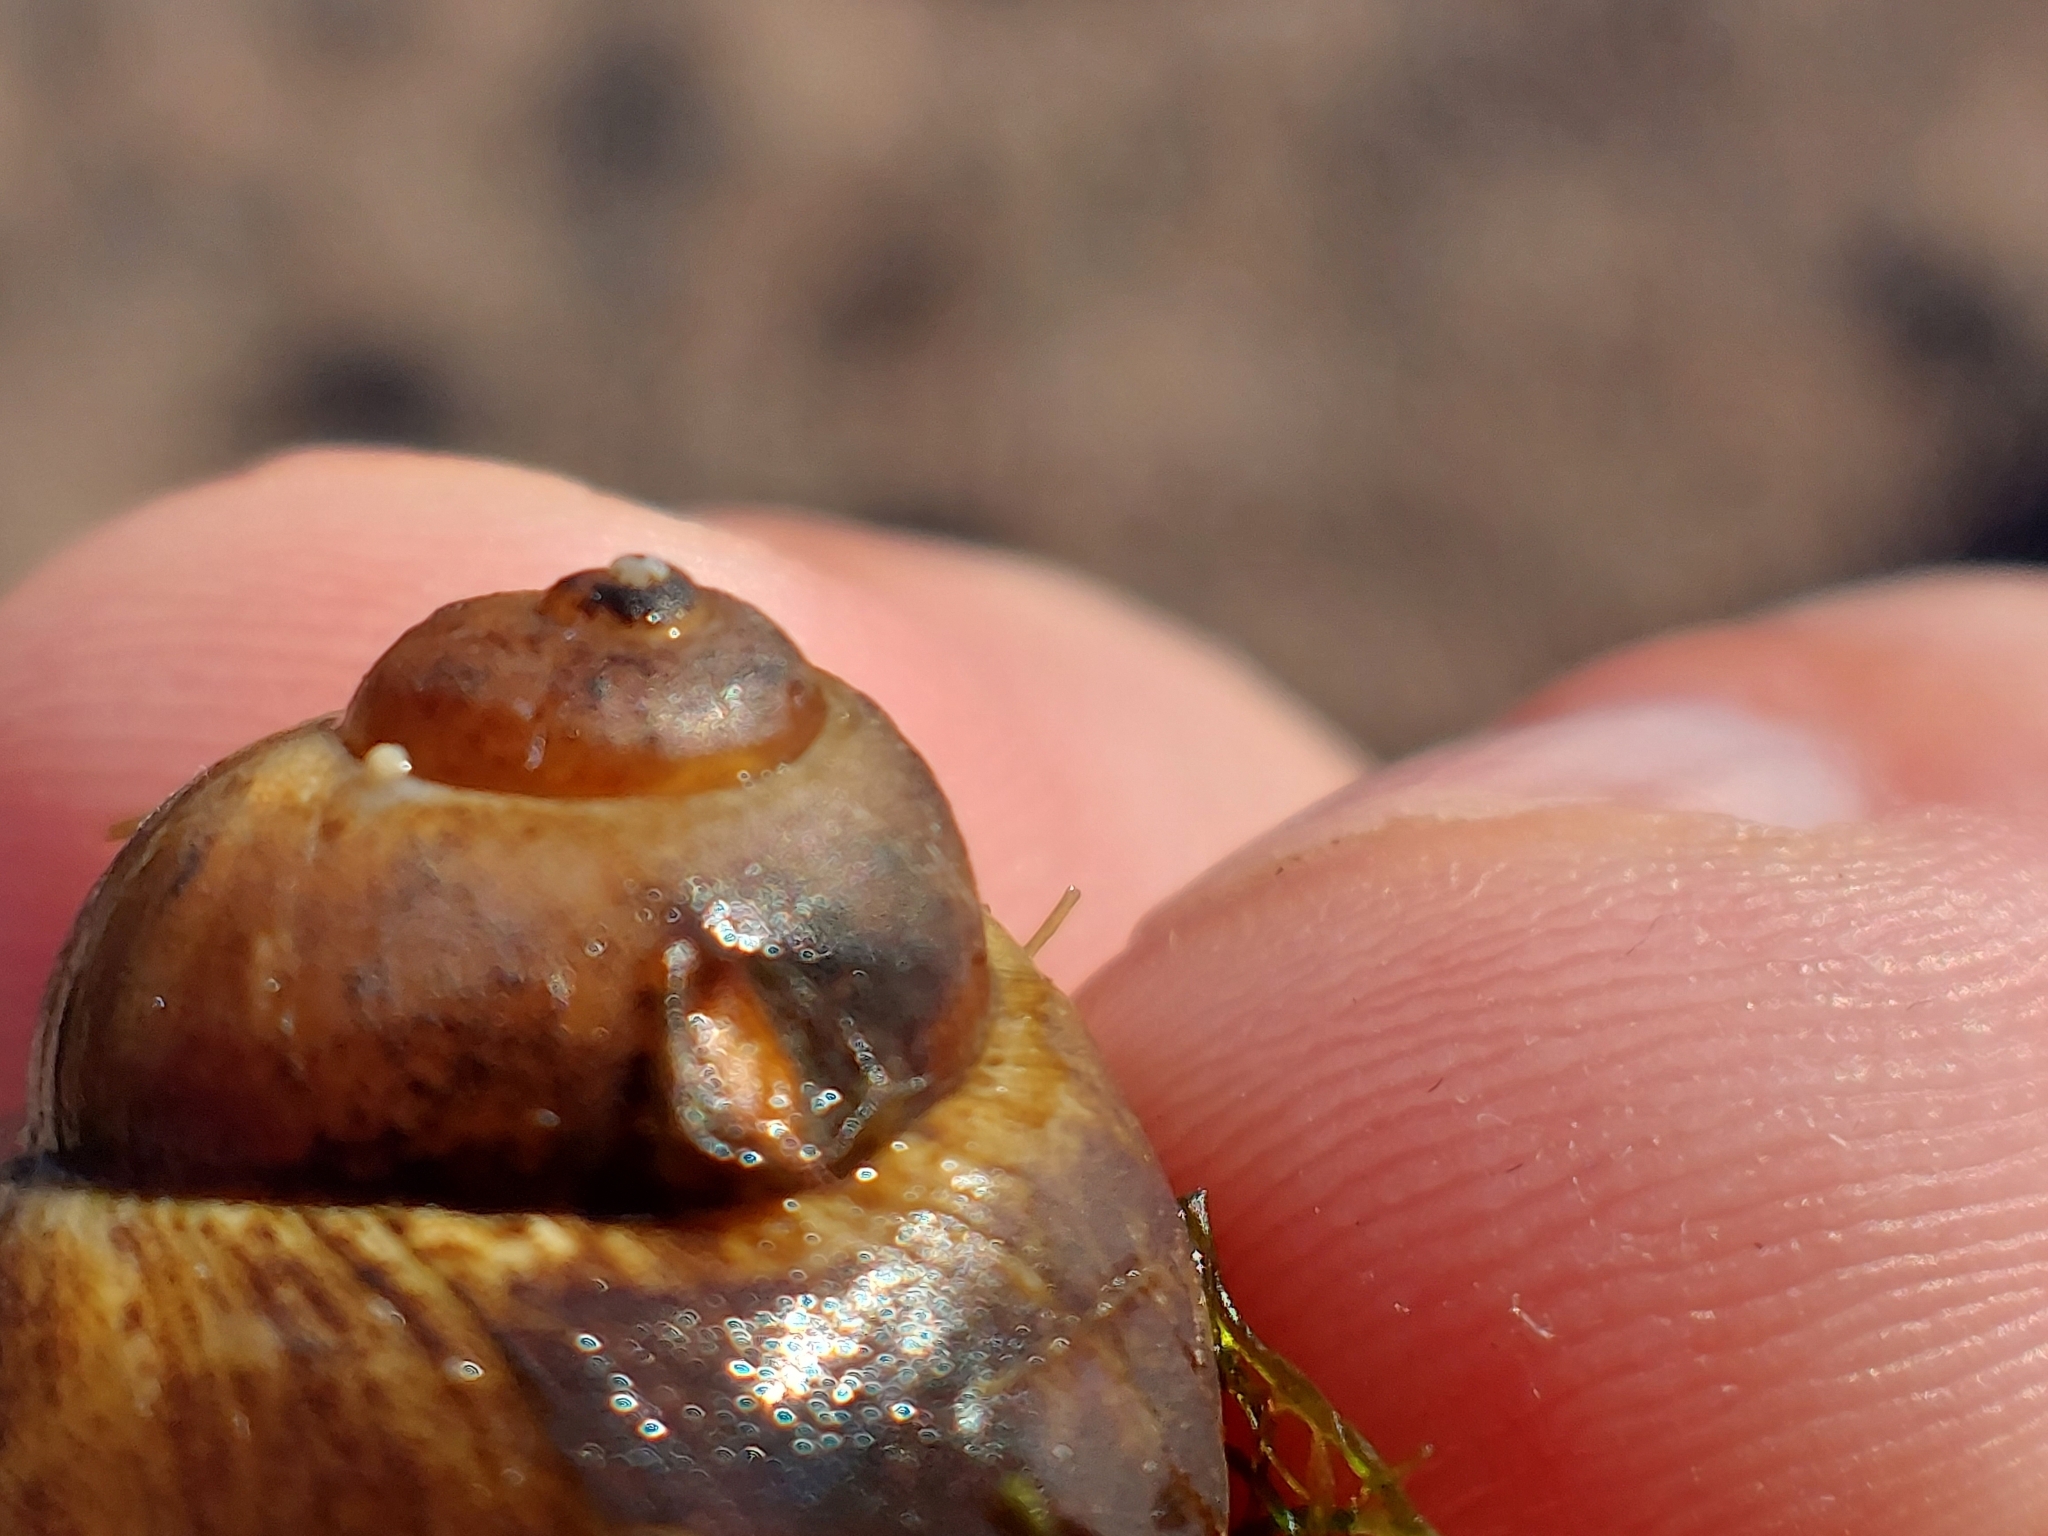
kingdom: Animalia
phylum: Mollusca
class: Gastropoda
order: Architaenioglossa
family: Viviparidae
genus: Viviparus
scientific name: Viviparus viviparus
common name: River snail
